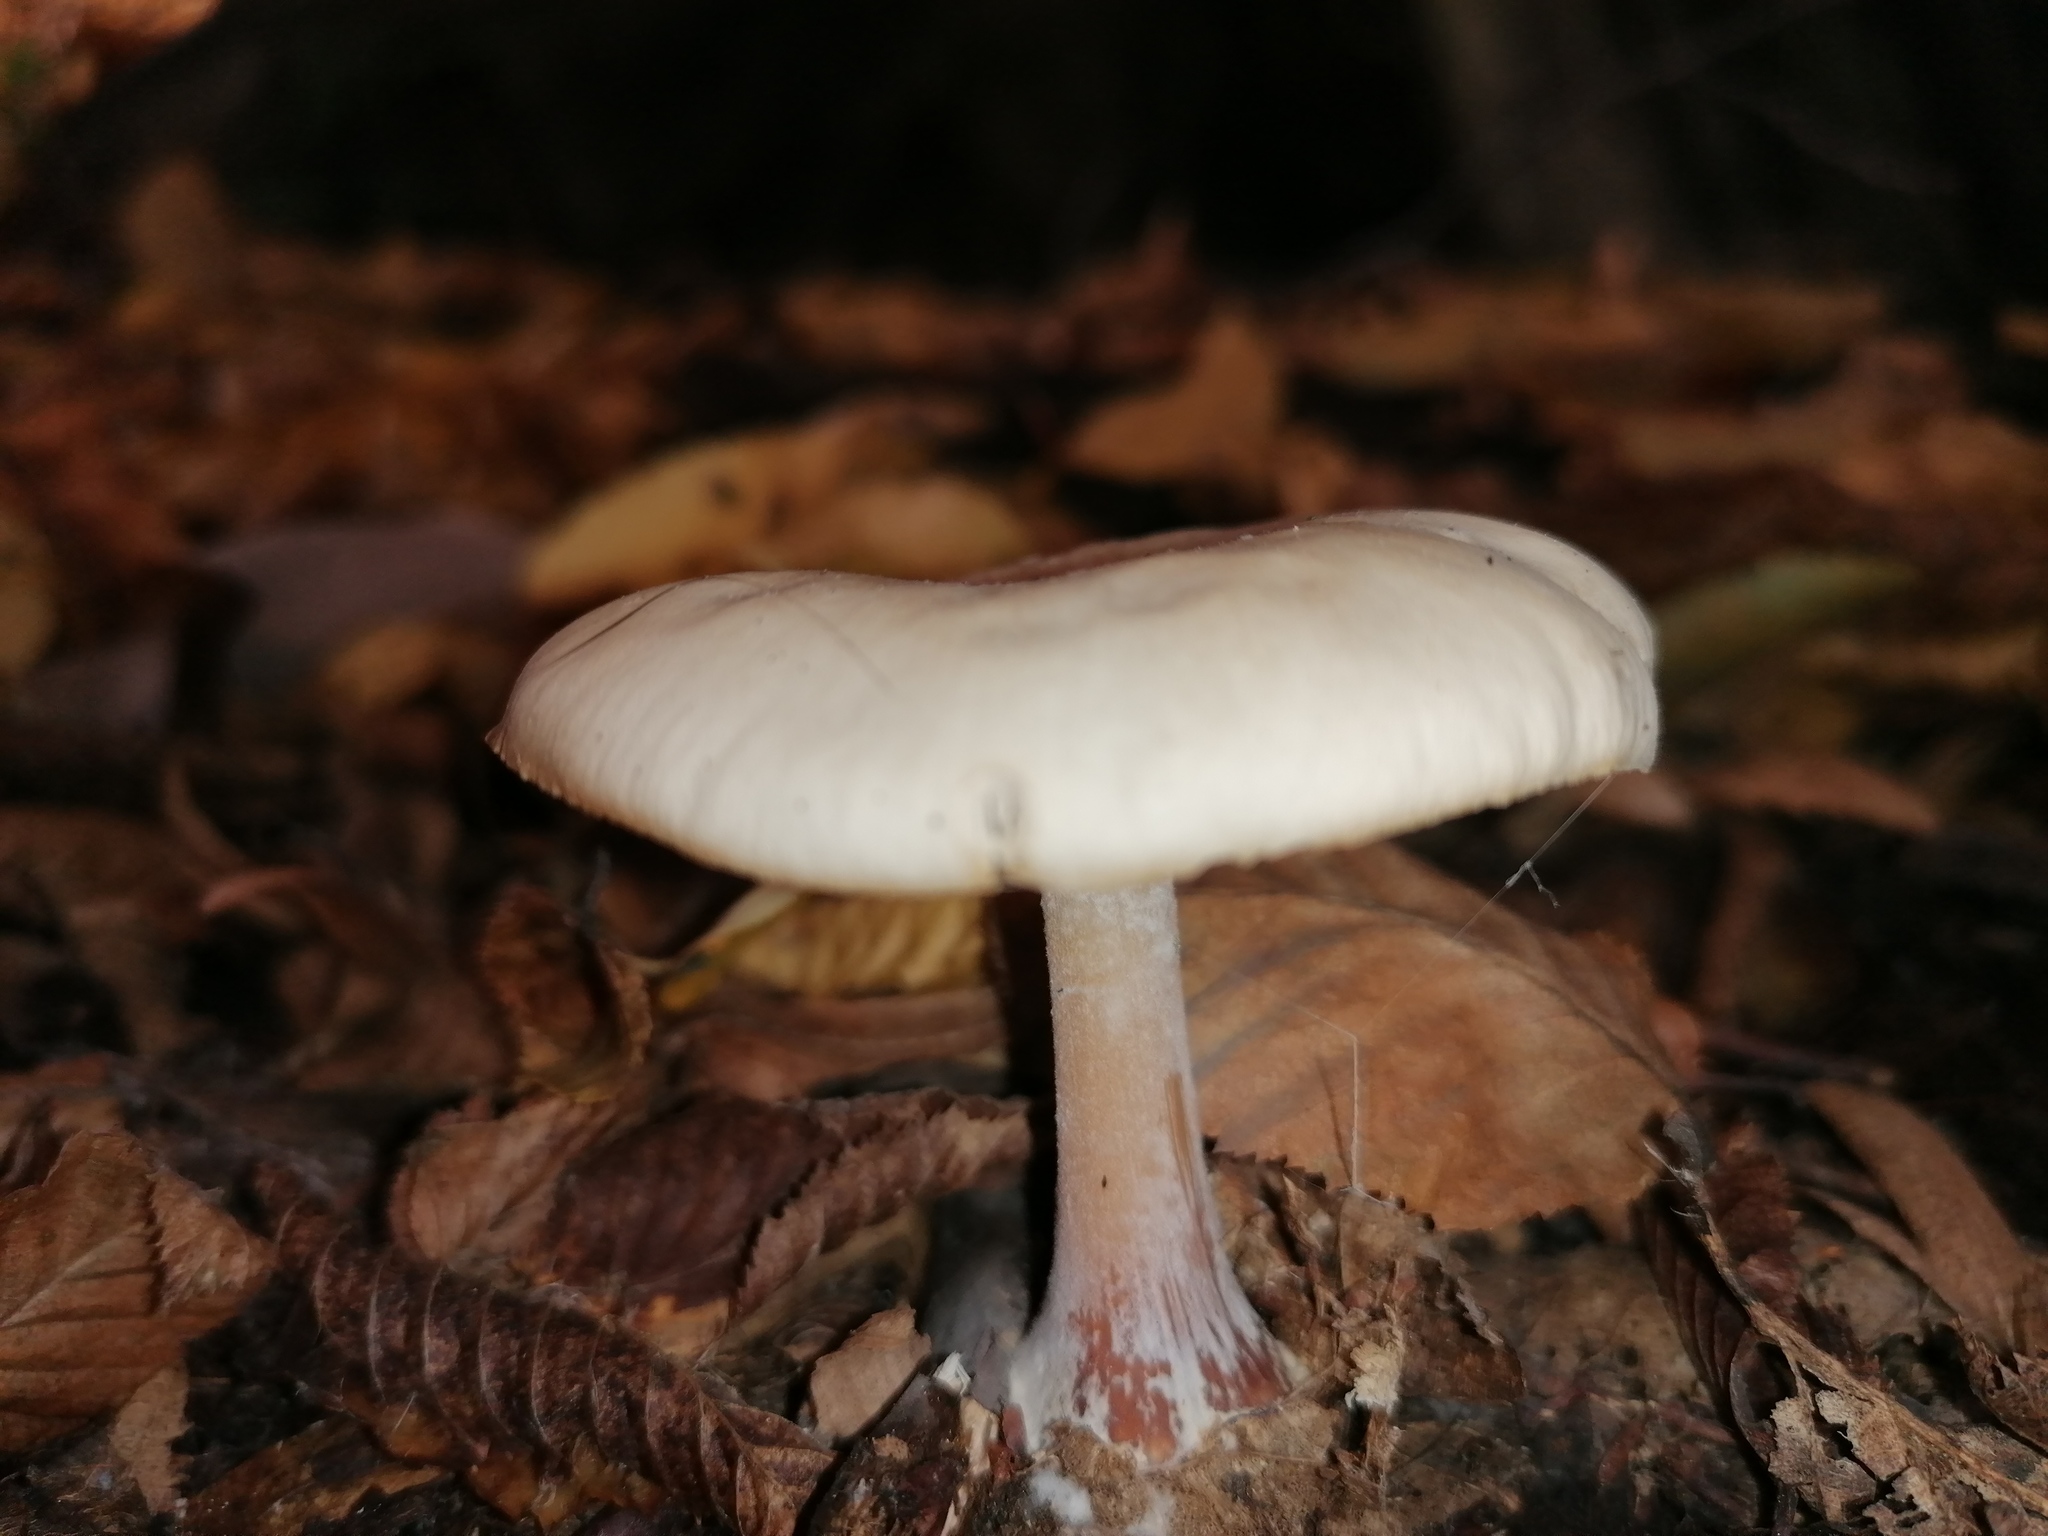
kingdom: Fungi
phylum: Basidiomycota
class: Agaricomycetes
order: Agaricales
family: Omphalotaceae
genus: Rhodocollybia
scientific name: Rhodocollybia asema
